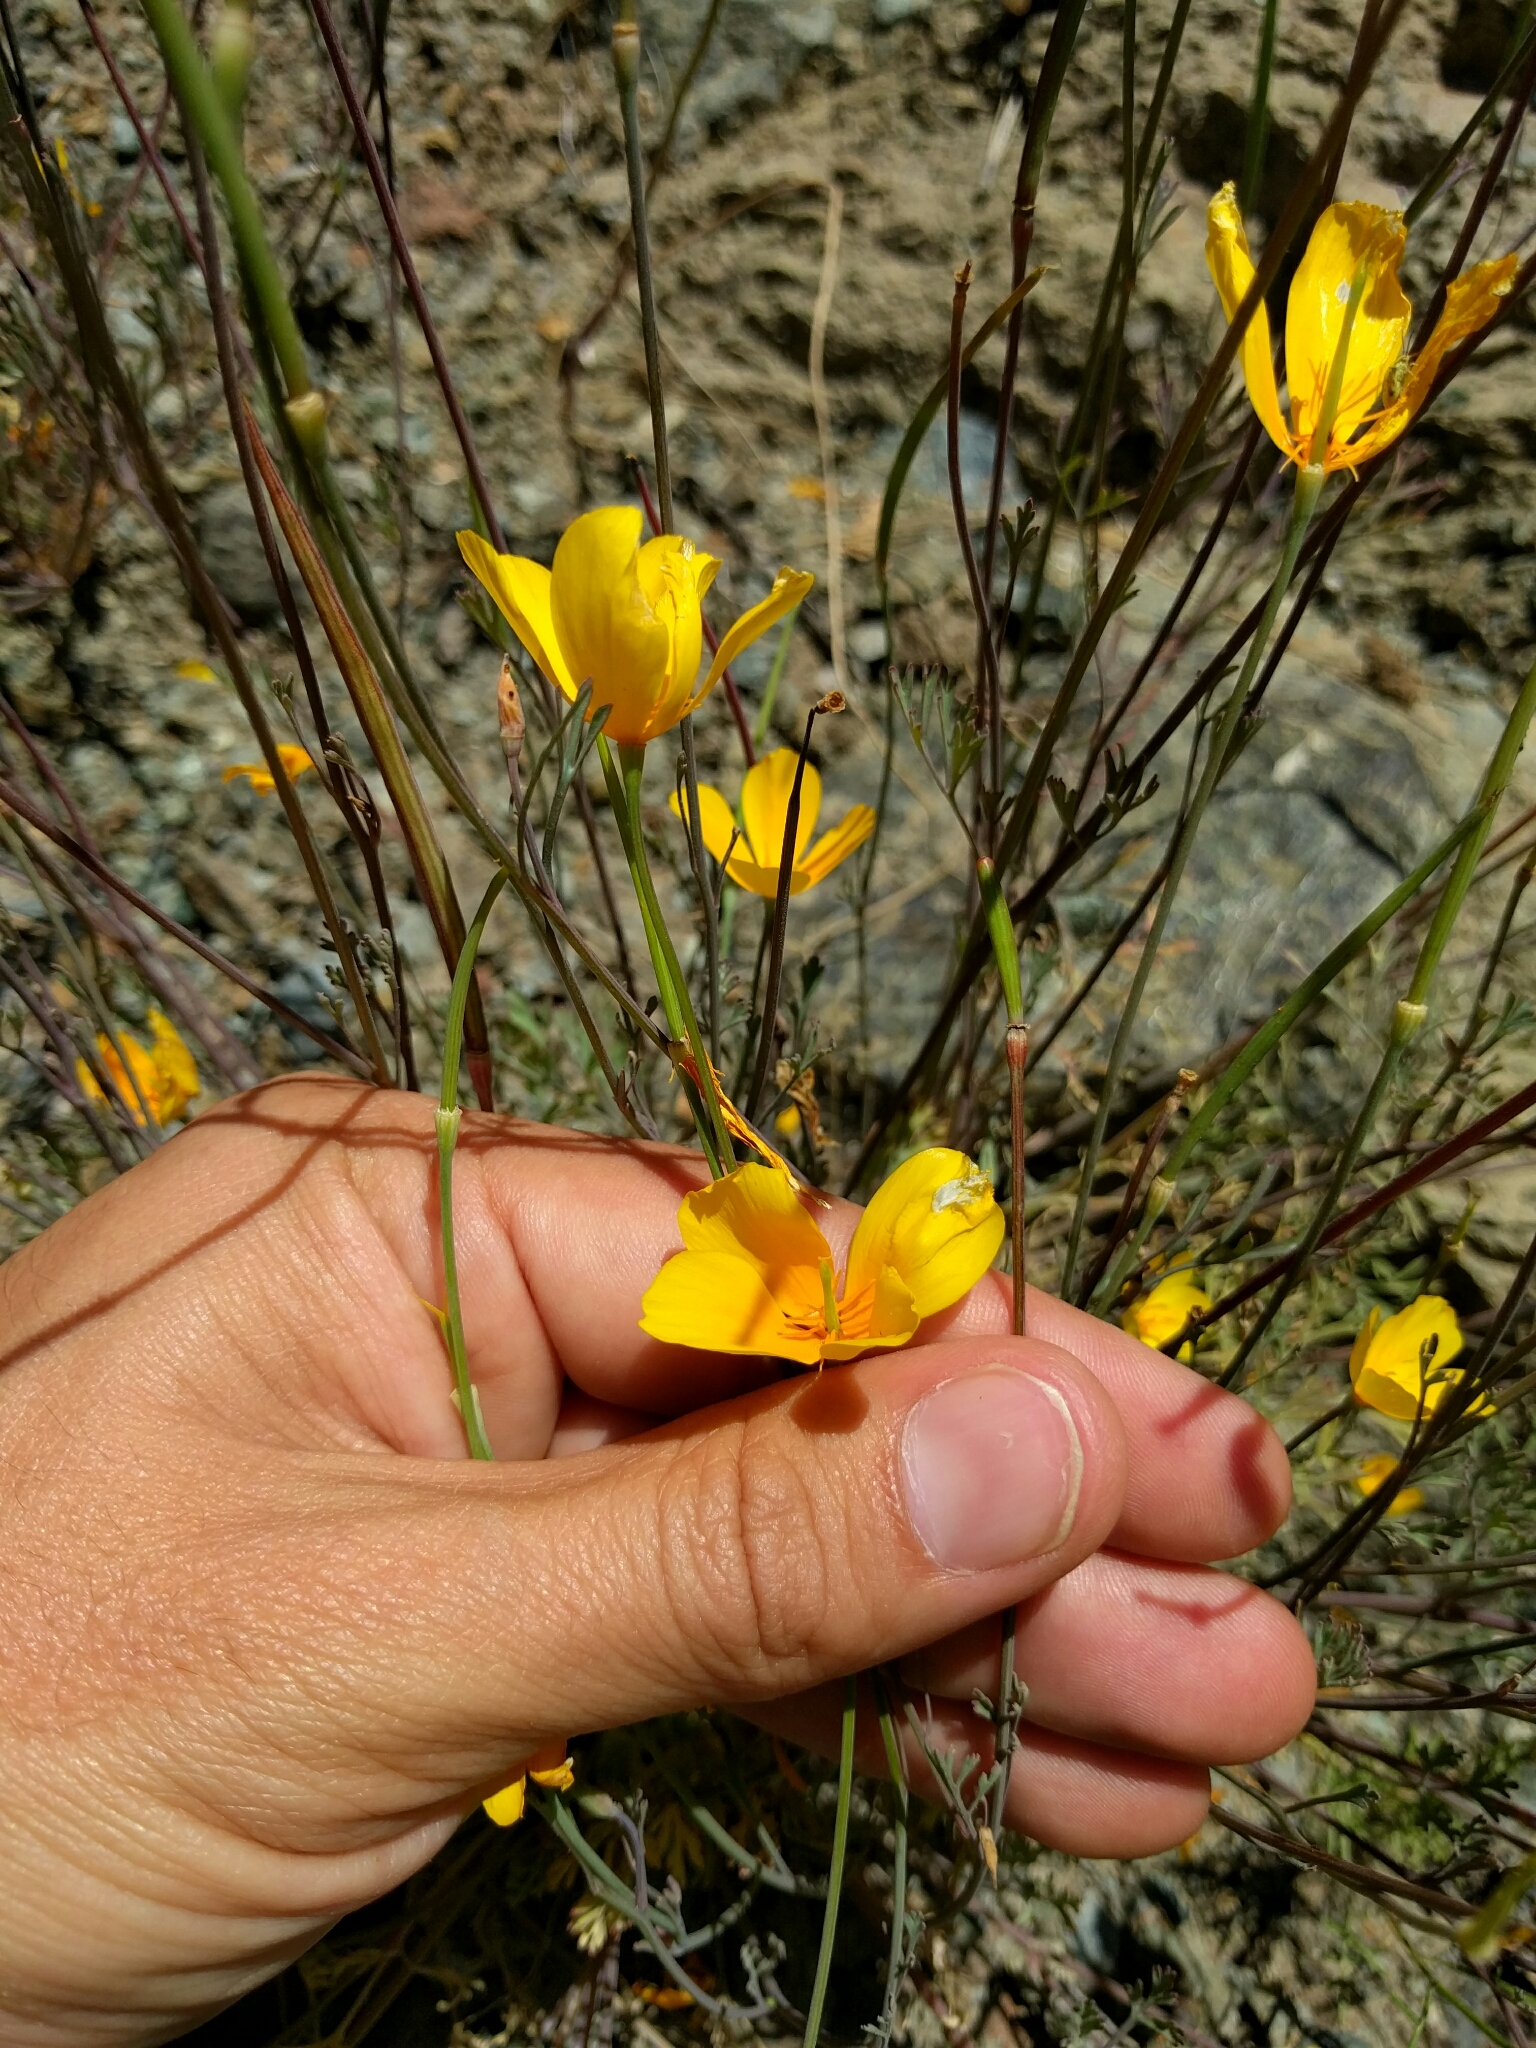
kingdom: Plantae
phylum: Tracheophyta
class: Magnoliopsida
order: Ranunculales
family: Papaveraceae
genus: Eschscholzia
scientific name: Eschscholzia caespitosa
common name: Tufted california-poppy
